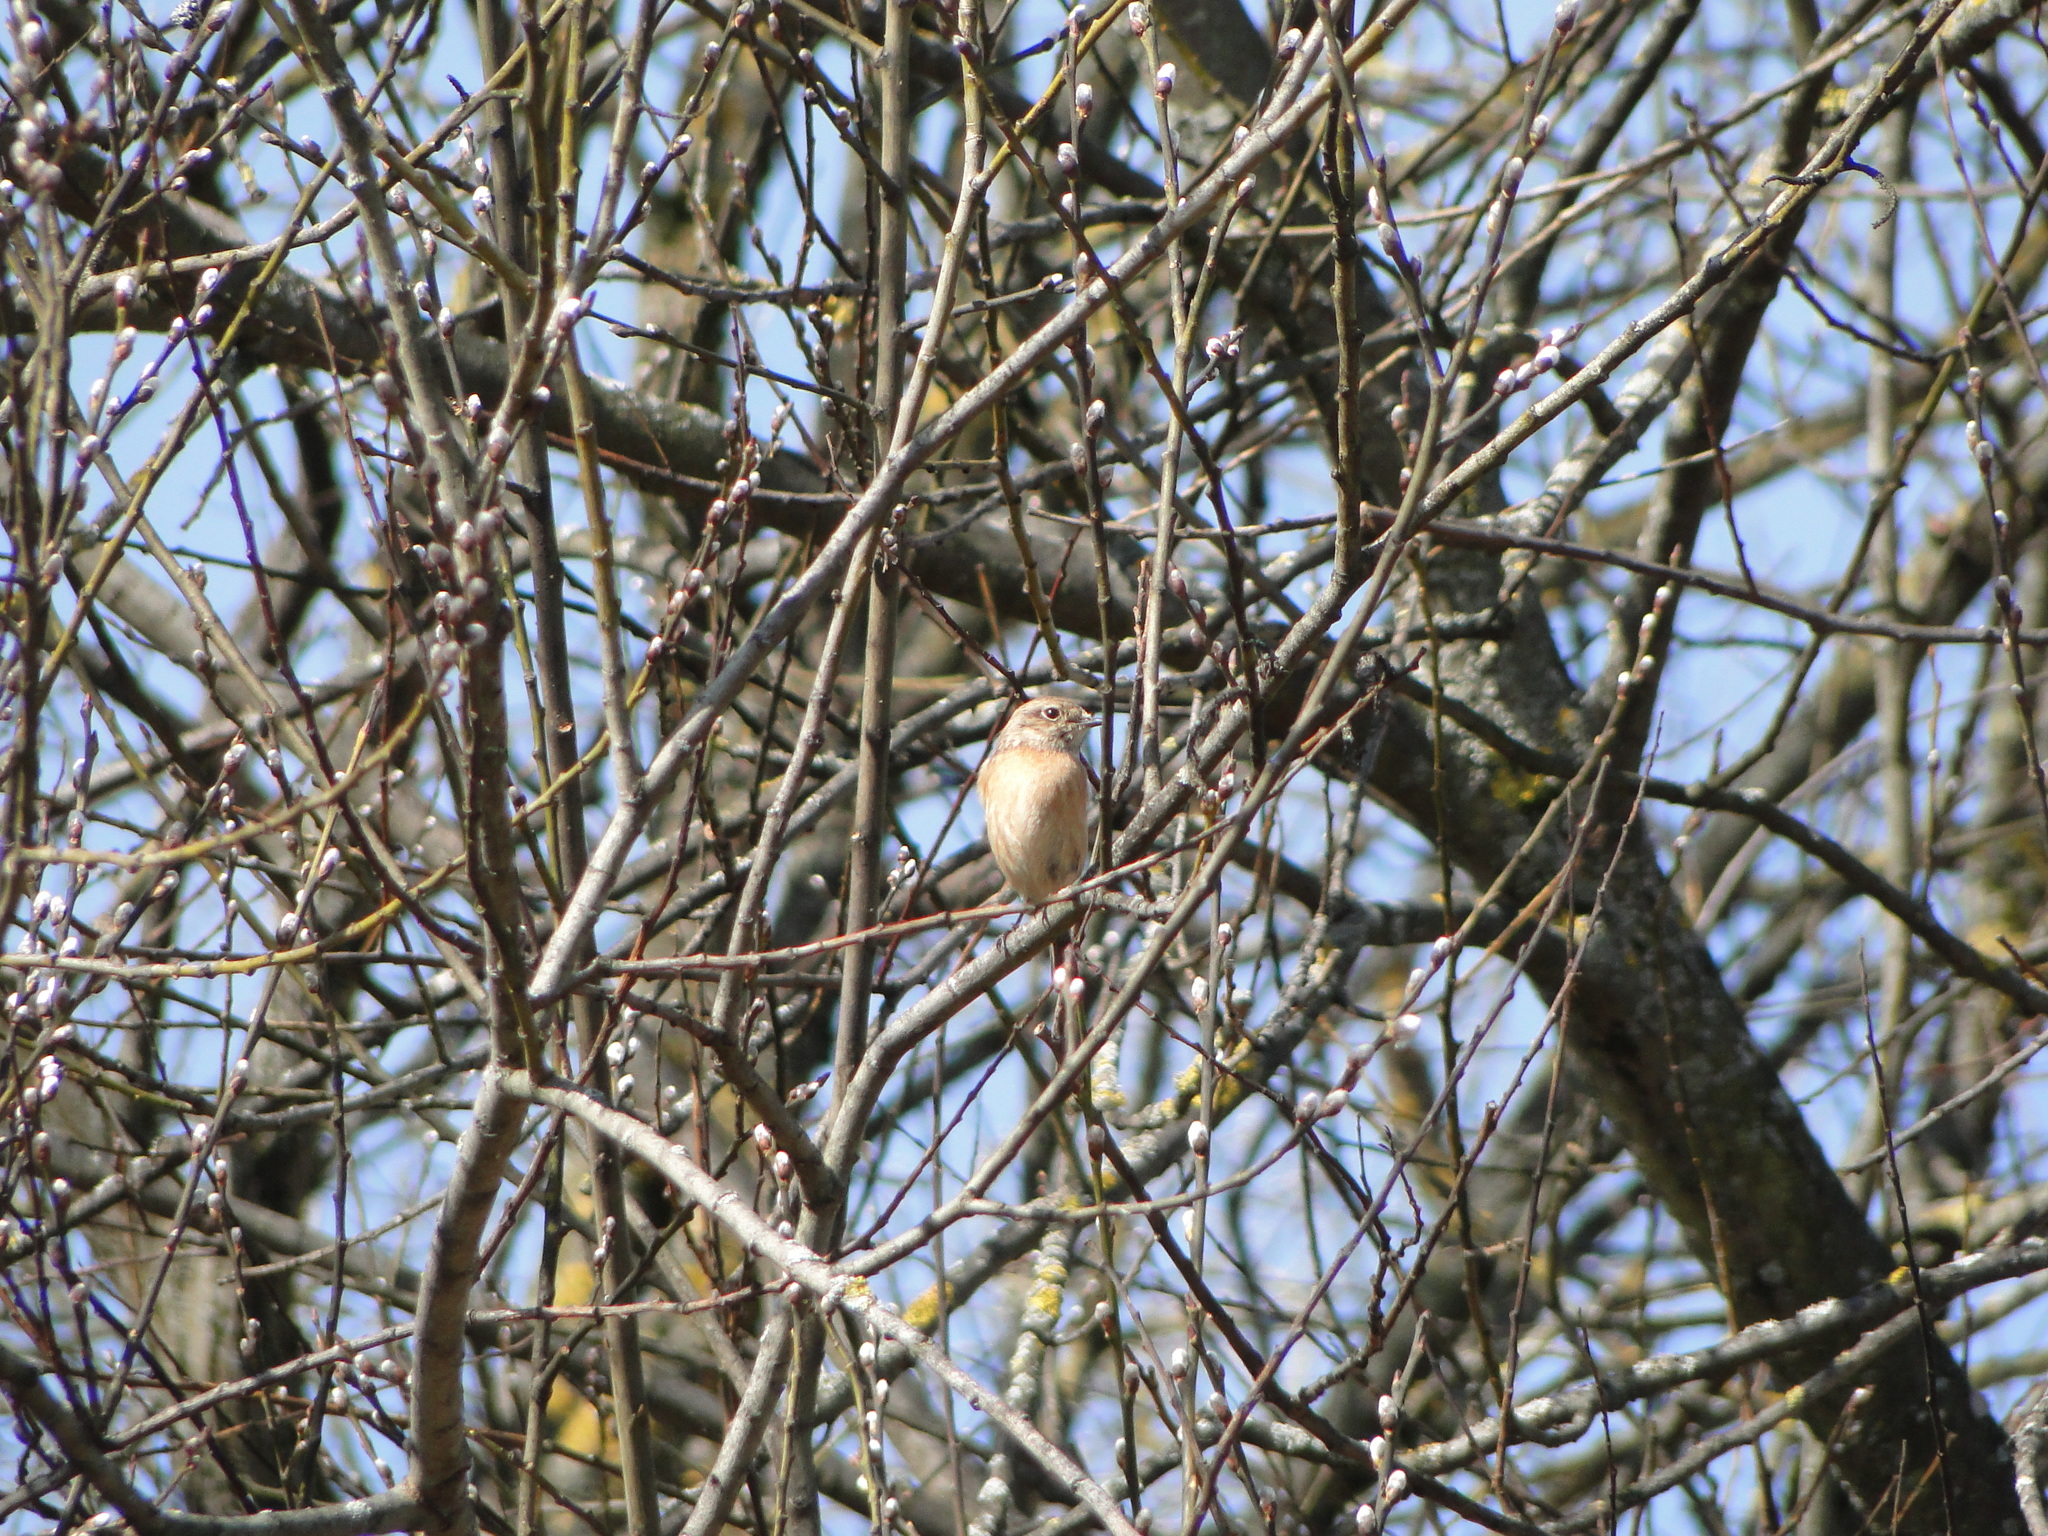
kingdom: Animalia
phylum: Chordata
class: Aves
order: Passeriformes
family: Muscicapidae
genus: Saxicola
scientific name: Saxicola rubicola
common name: European stonechat
